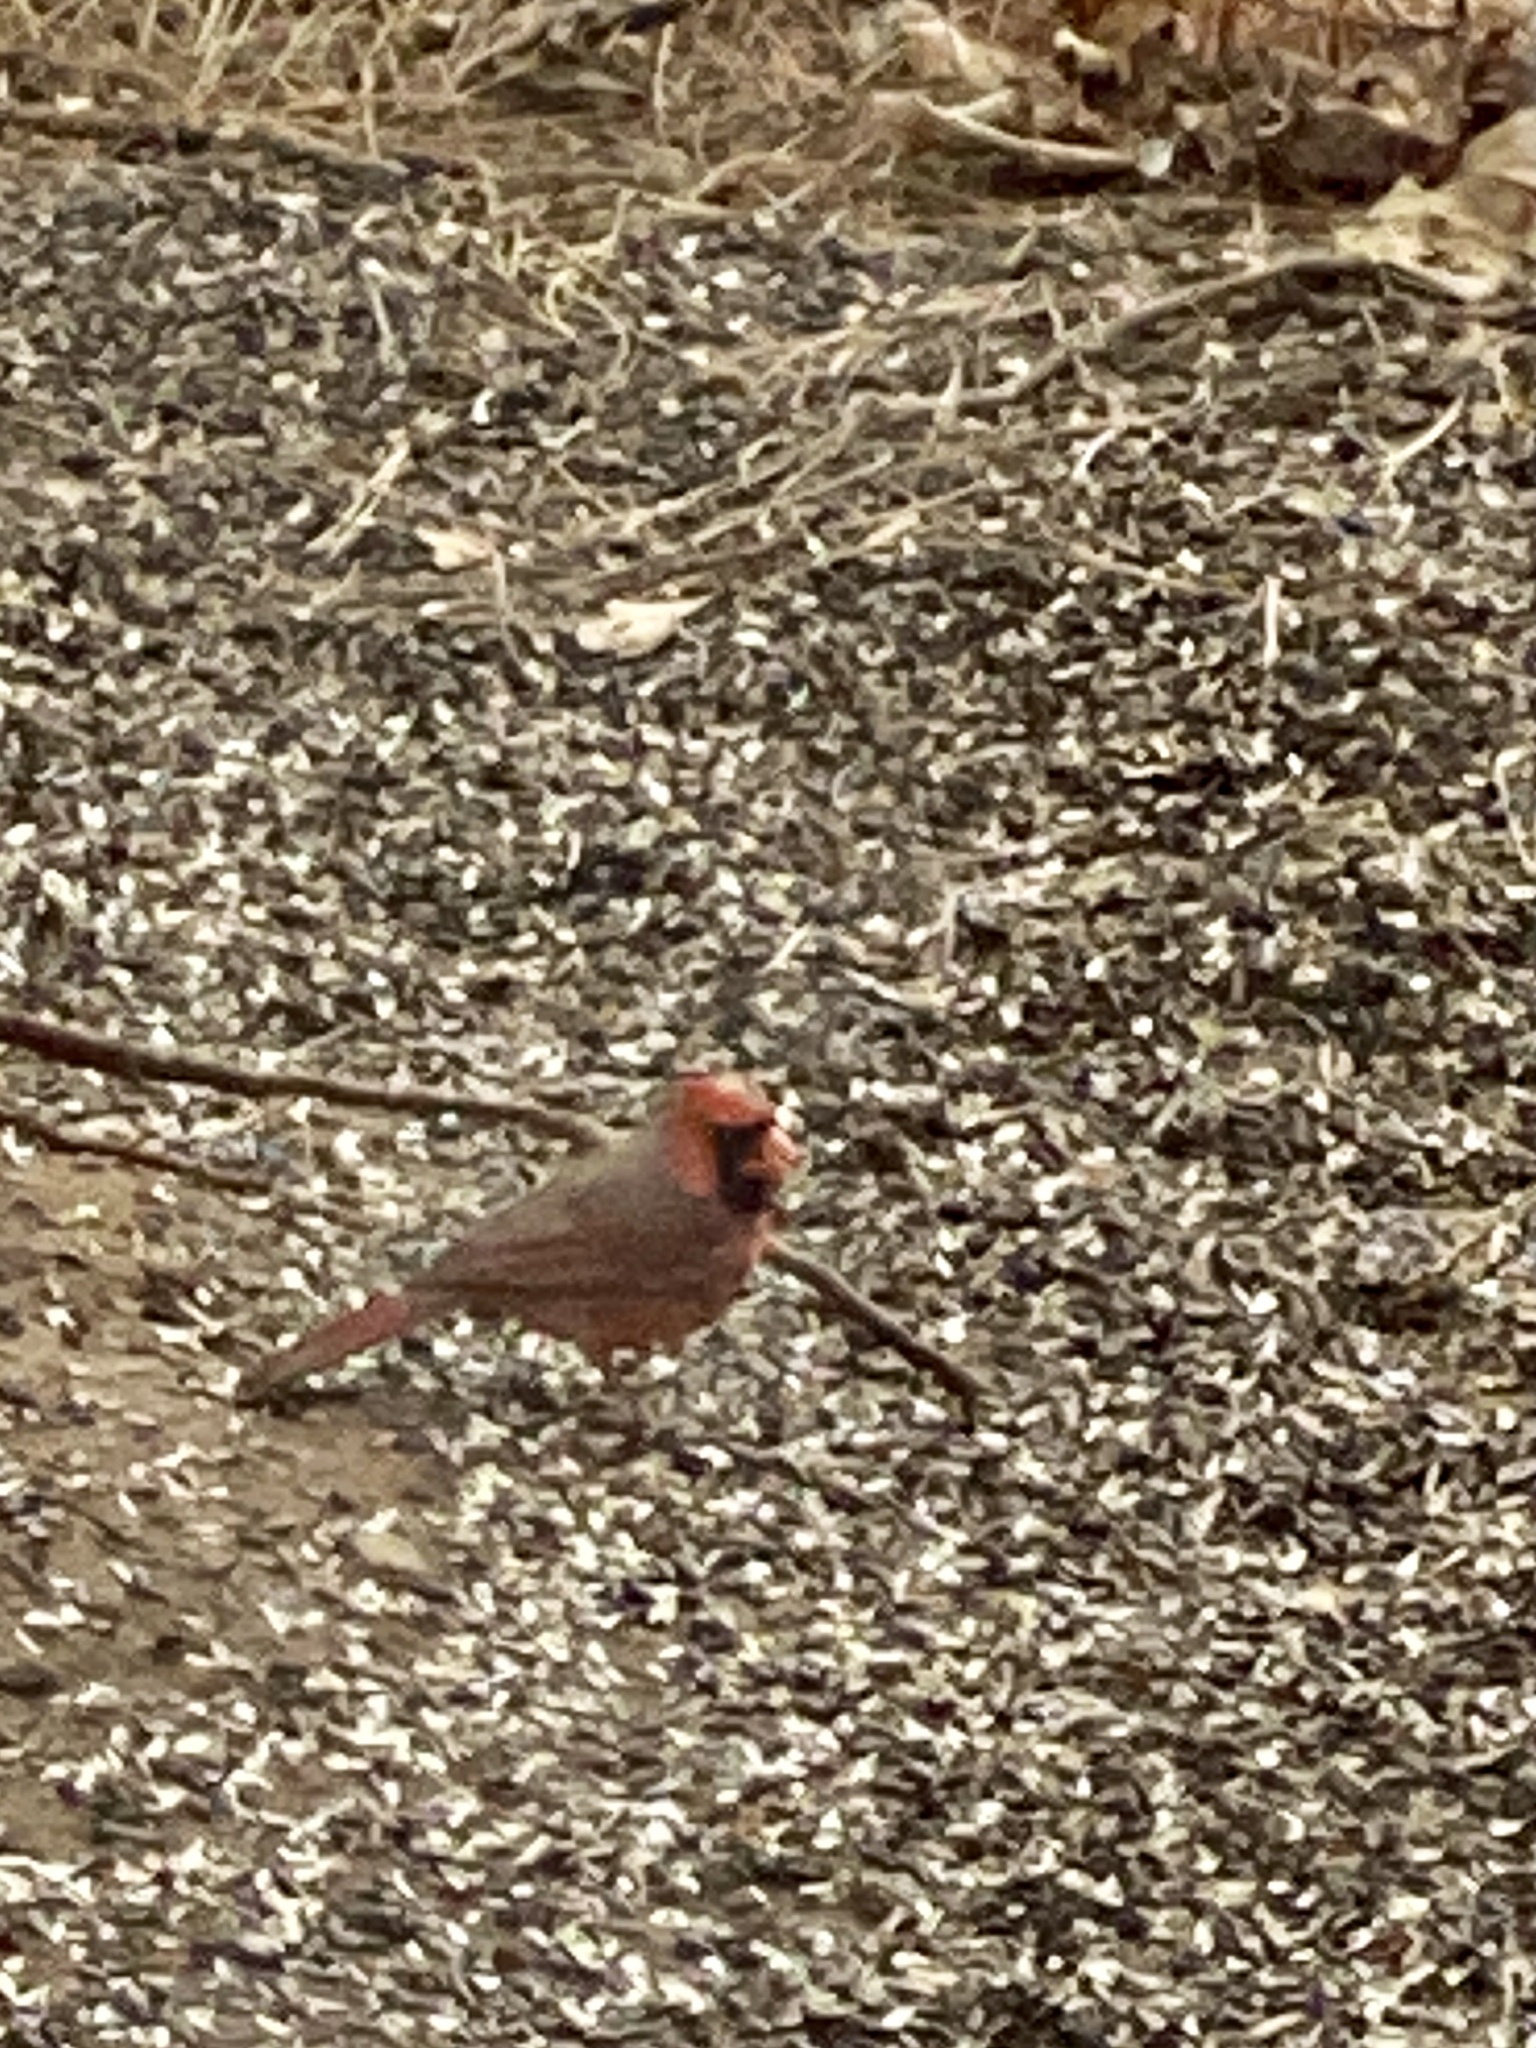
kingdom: Animalia
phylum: Chordata
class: Aves
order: Passeriformes
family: Cardinalidae
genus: Cardinalis
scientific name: Cardinalis cardinalis
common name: Northern cardinal
